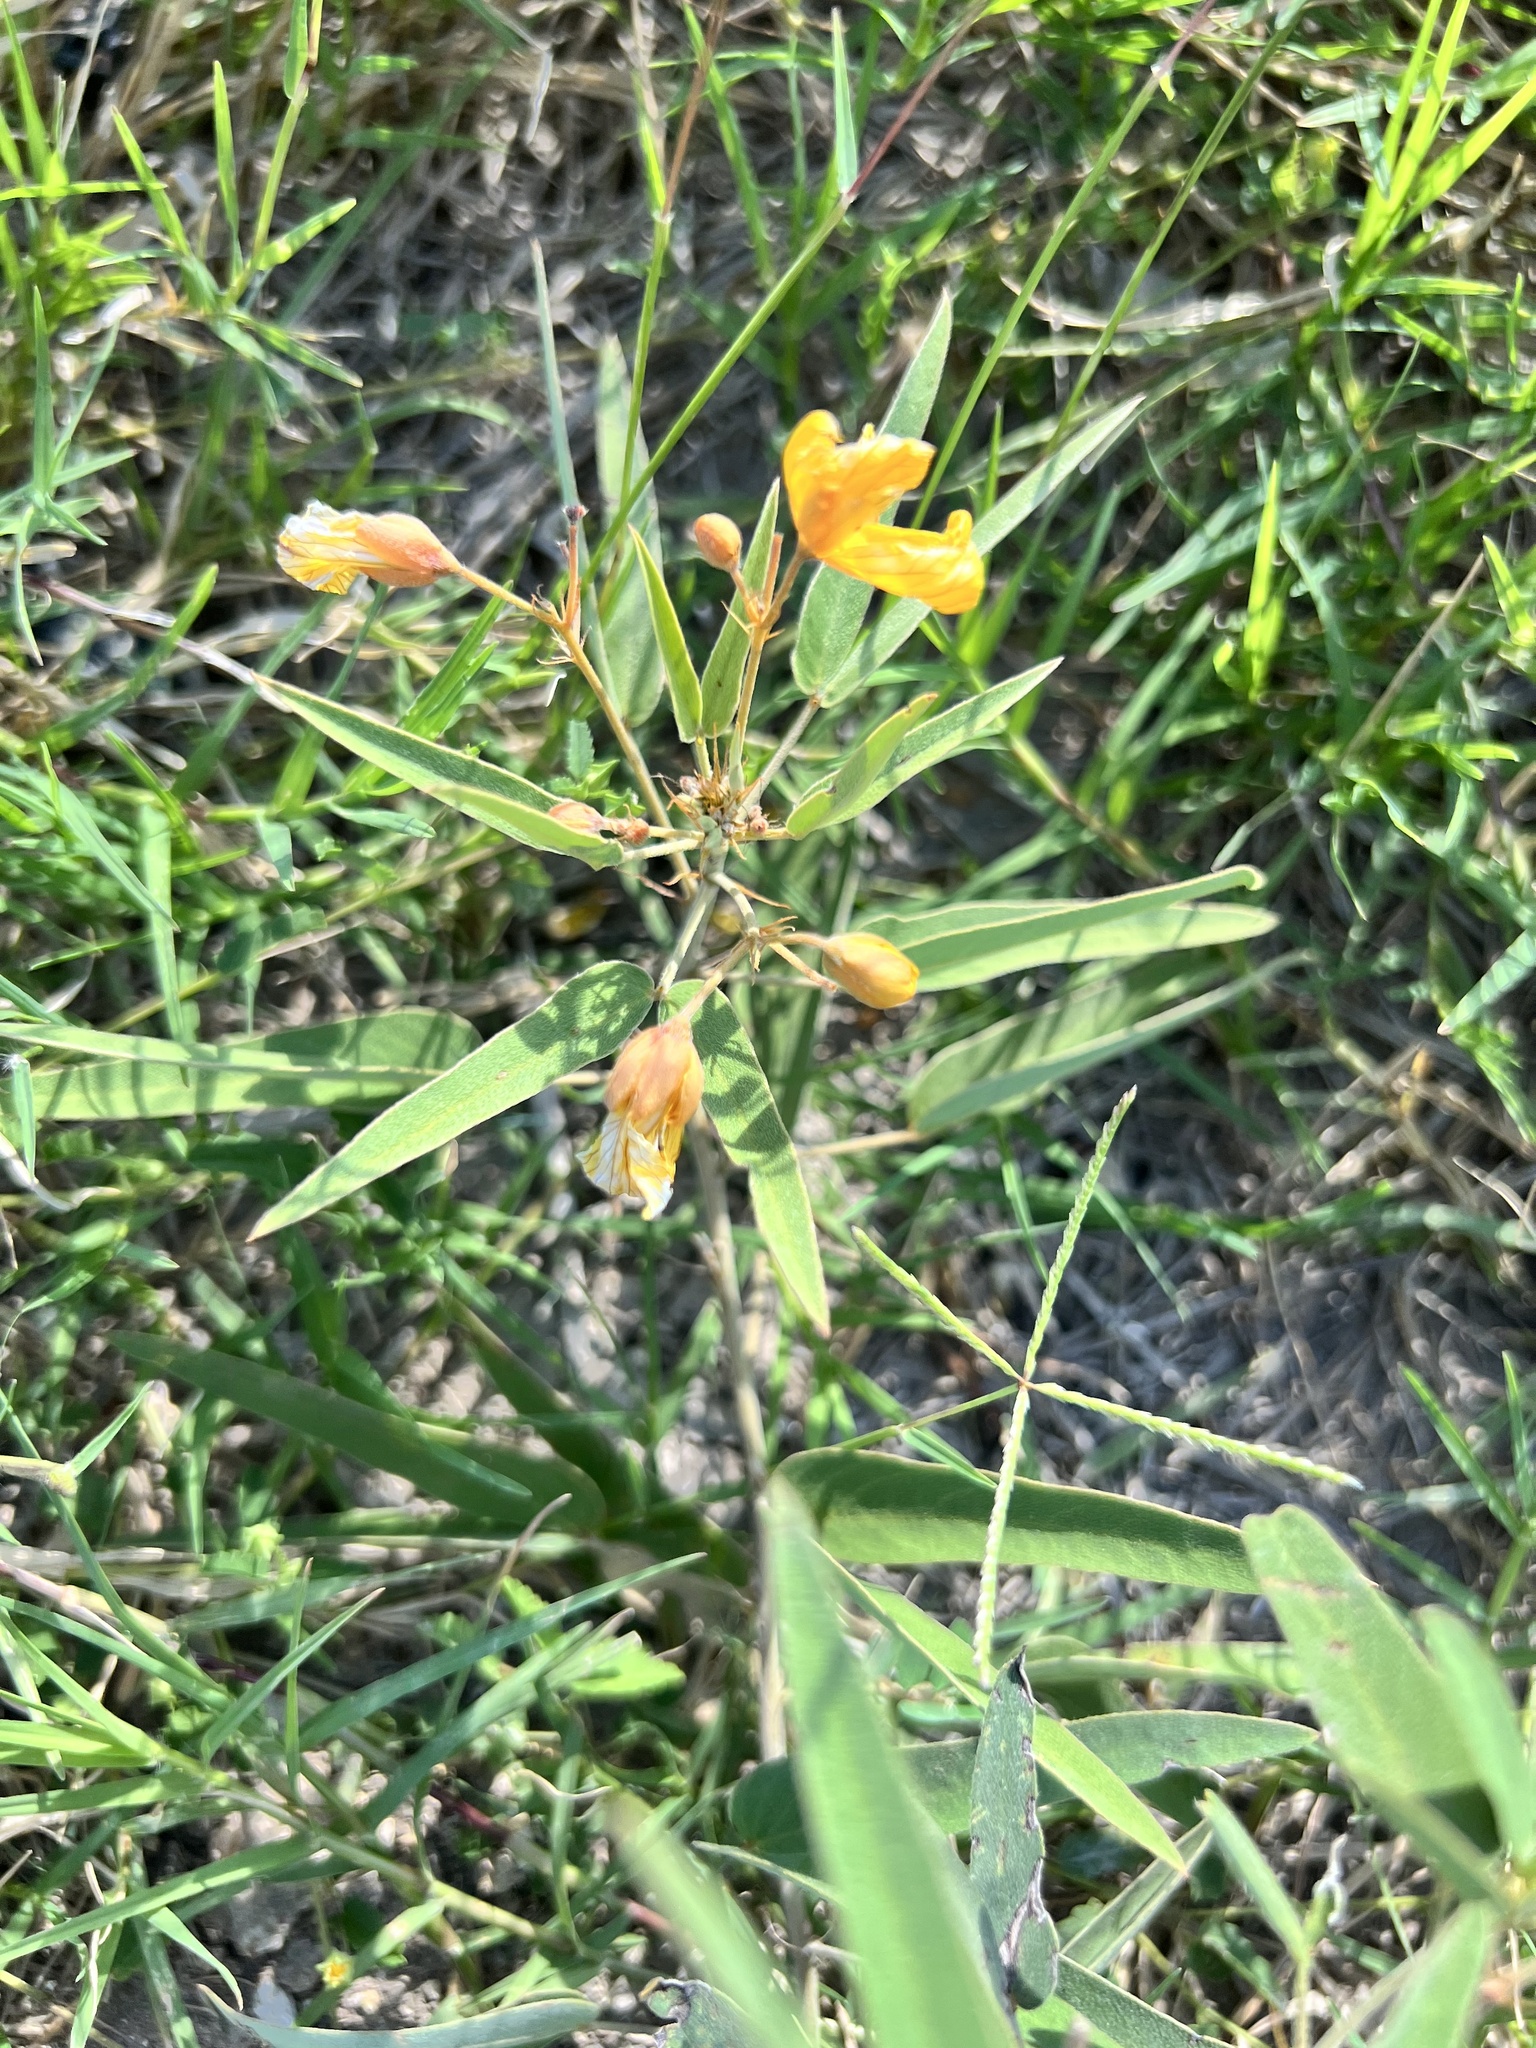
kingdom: Plantae
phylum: Tracheophyta
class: Magnoliopsida
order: Fabales
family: Fabaceae
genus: Senna
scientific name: Senna roemeriana
